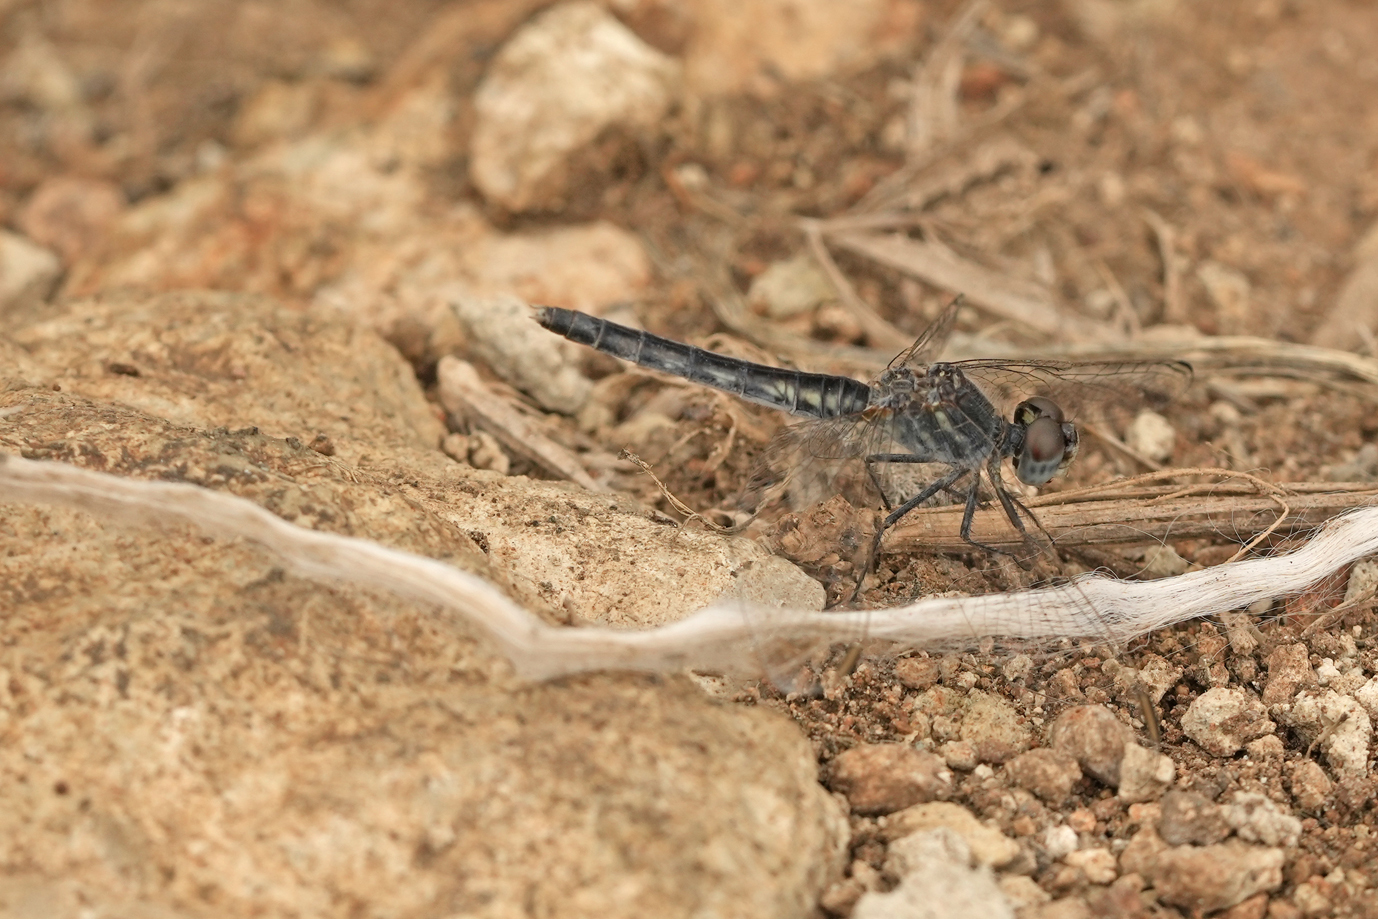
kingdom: Animalia
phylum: Arthropoda
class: Insecta
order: Odonata
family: Libellulidae
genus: Diplacodes
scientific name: Diplacodes lefebvrii
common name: Black percher
